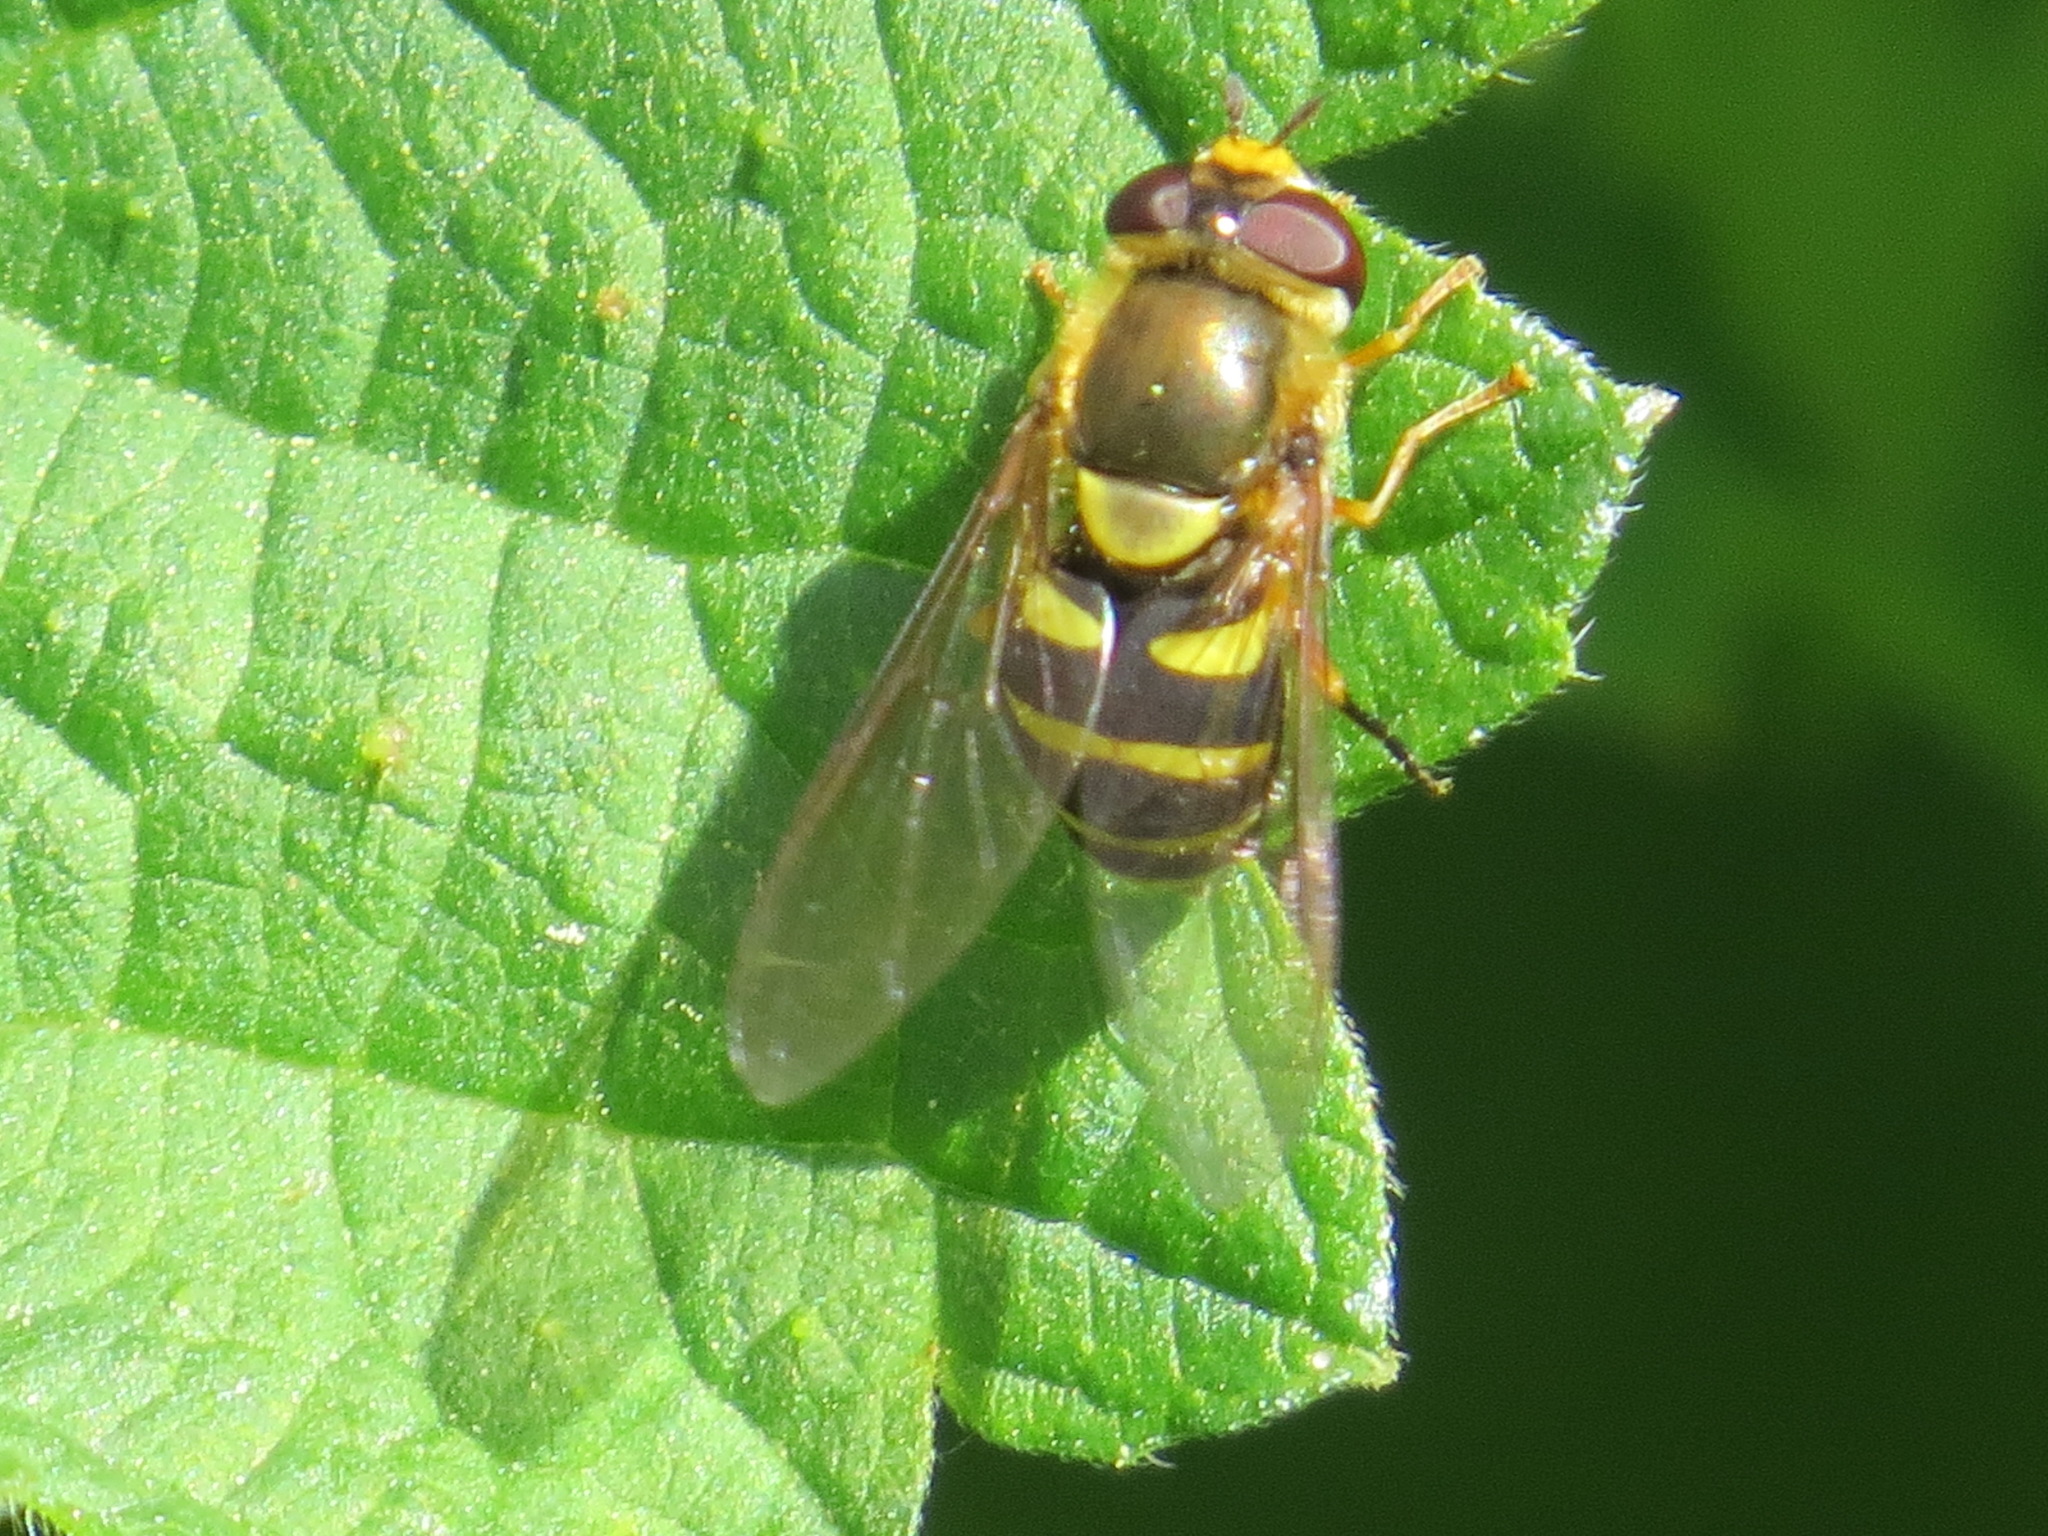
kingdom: Animalia
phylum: Arthropoda
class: Insecta
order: Diptera
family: Syrphidae
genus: Syrphus
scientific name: Syrphus opinator
